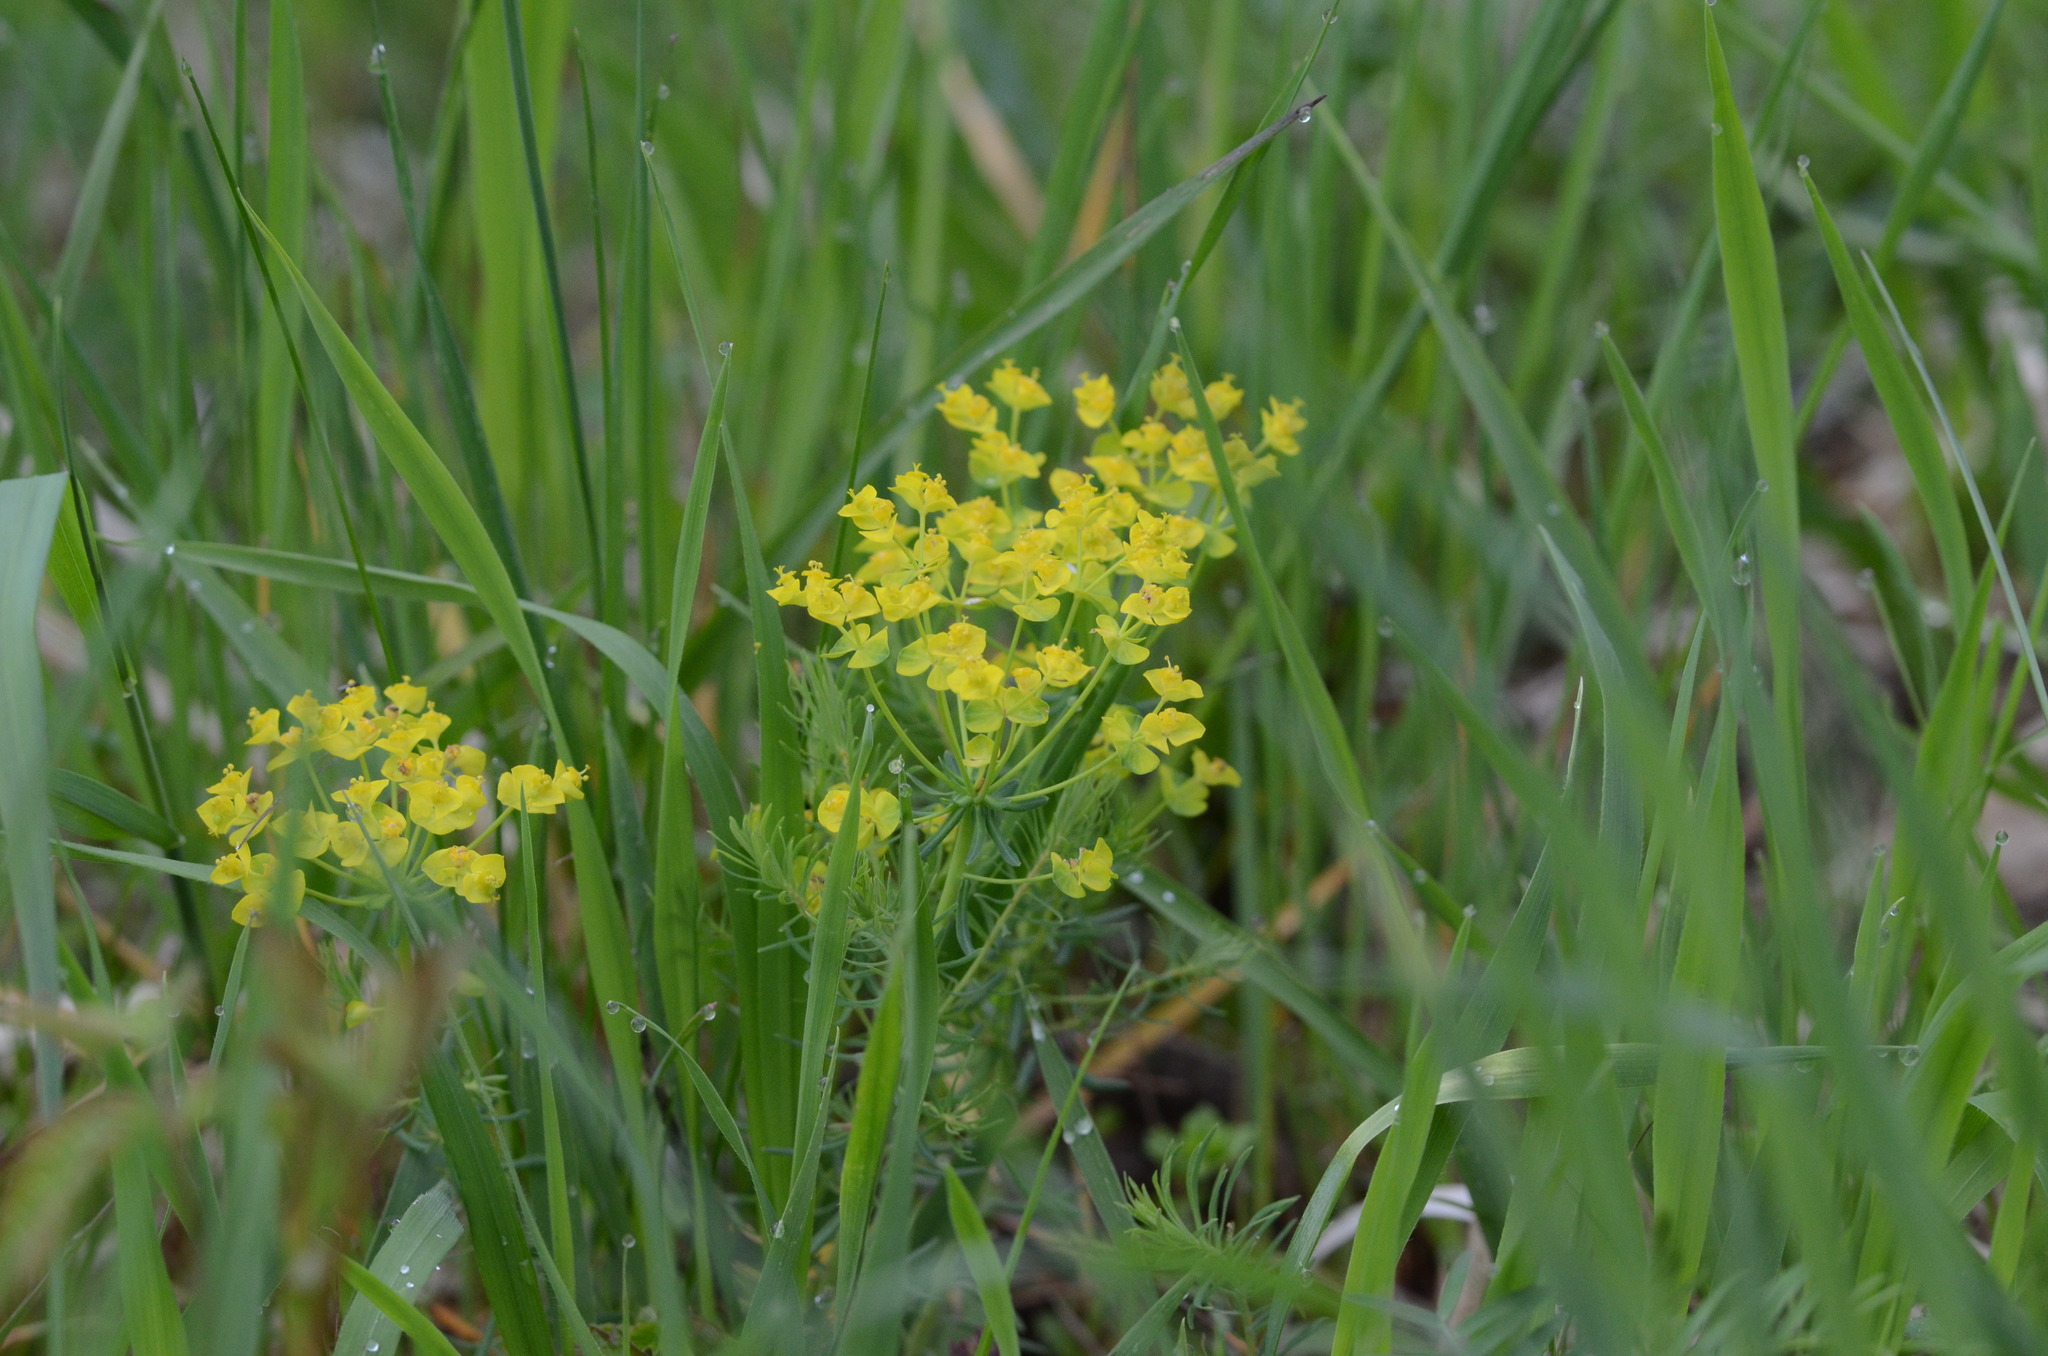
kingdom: Plantae
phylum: Tracheophyta
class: Magnoliopsida
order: Malpighiales
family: Euphorbiaceae
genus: Euphorbia
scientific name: Euphorbia cyparissias
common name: Cypress spurge
